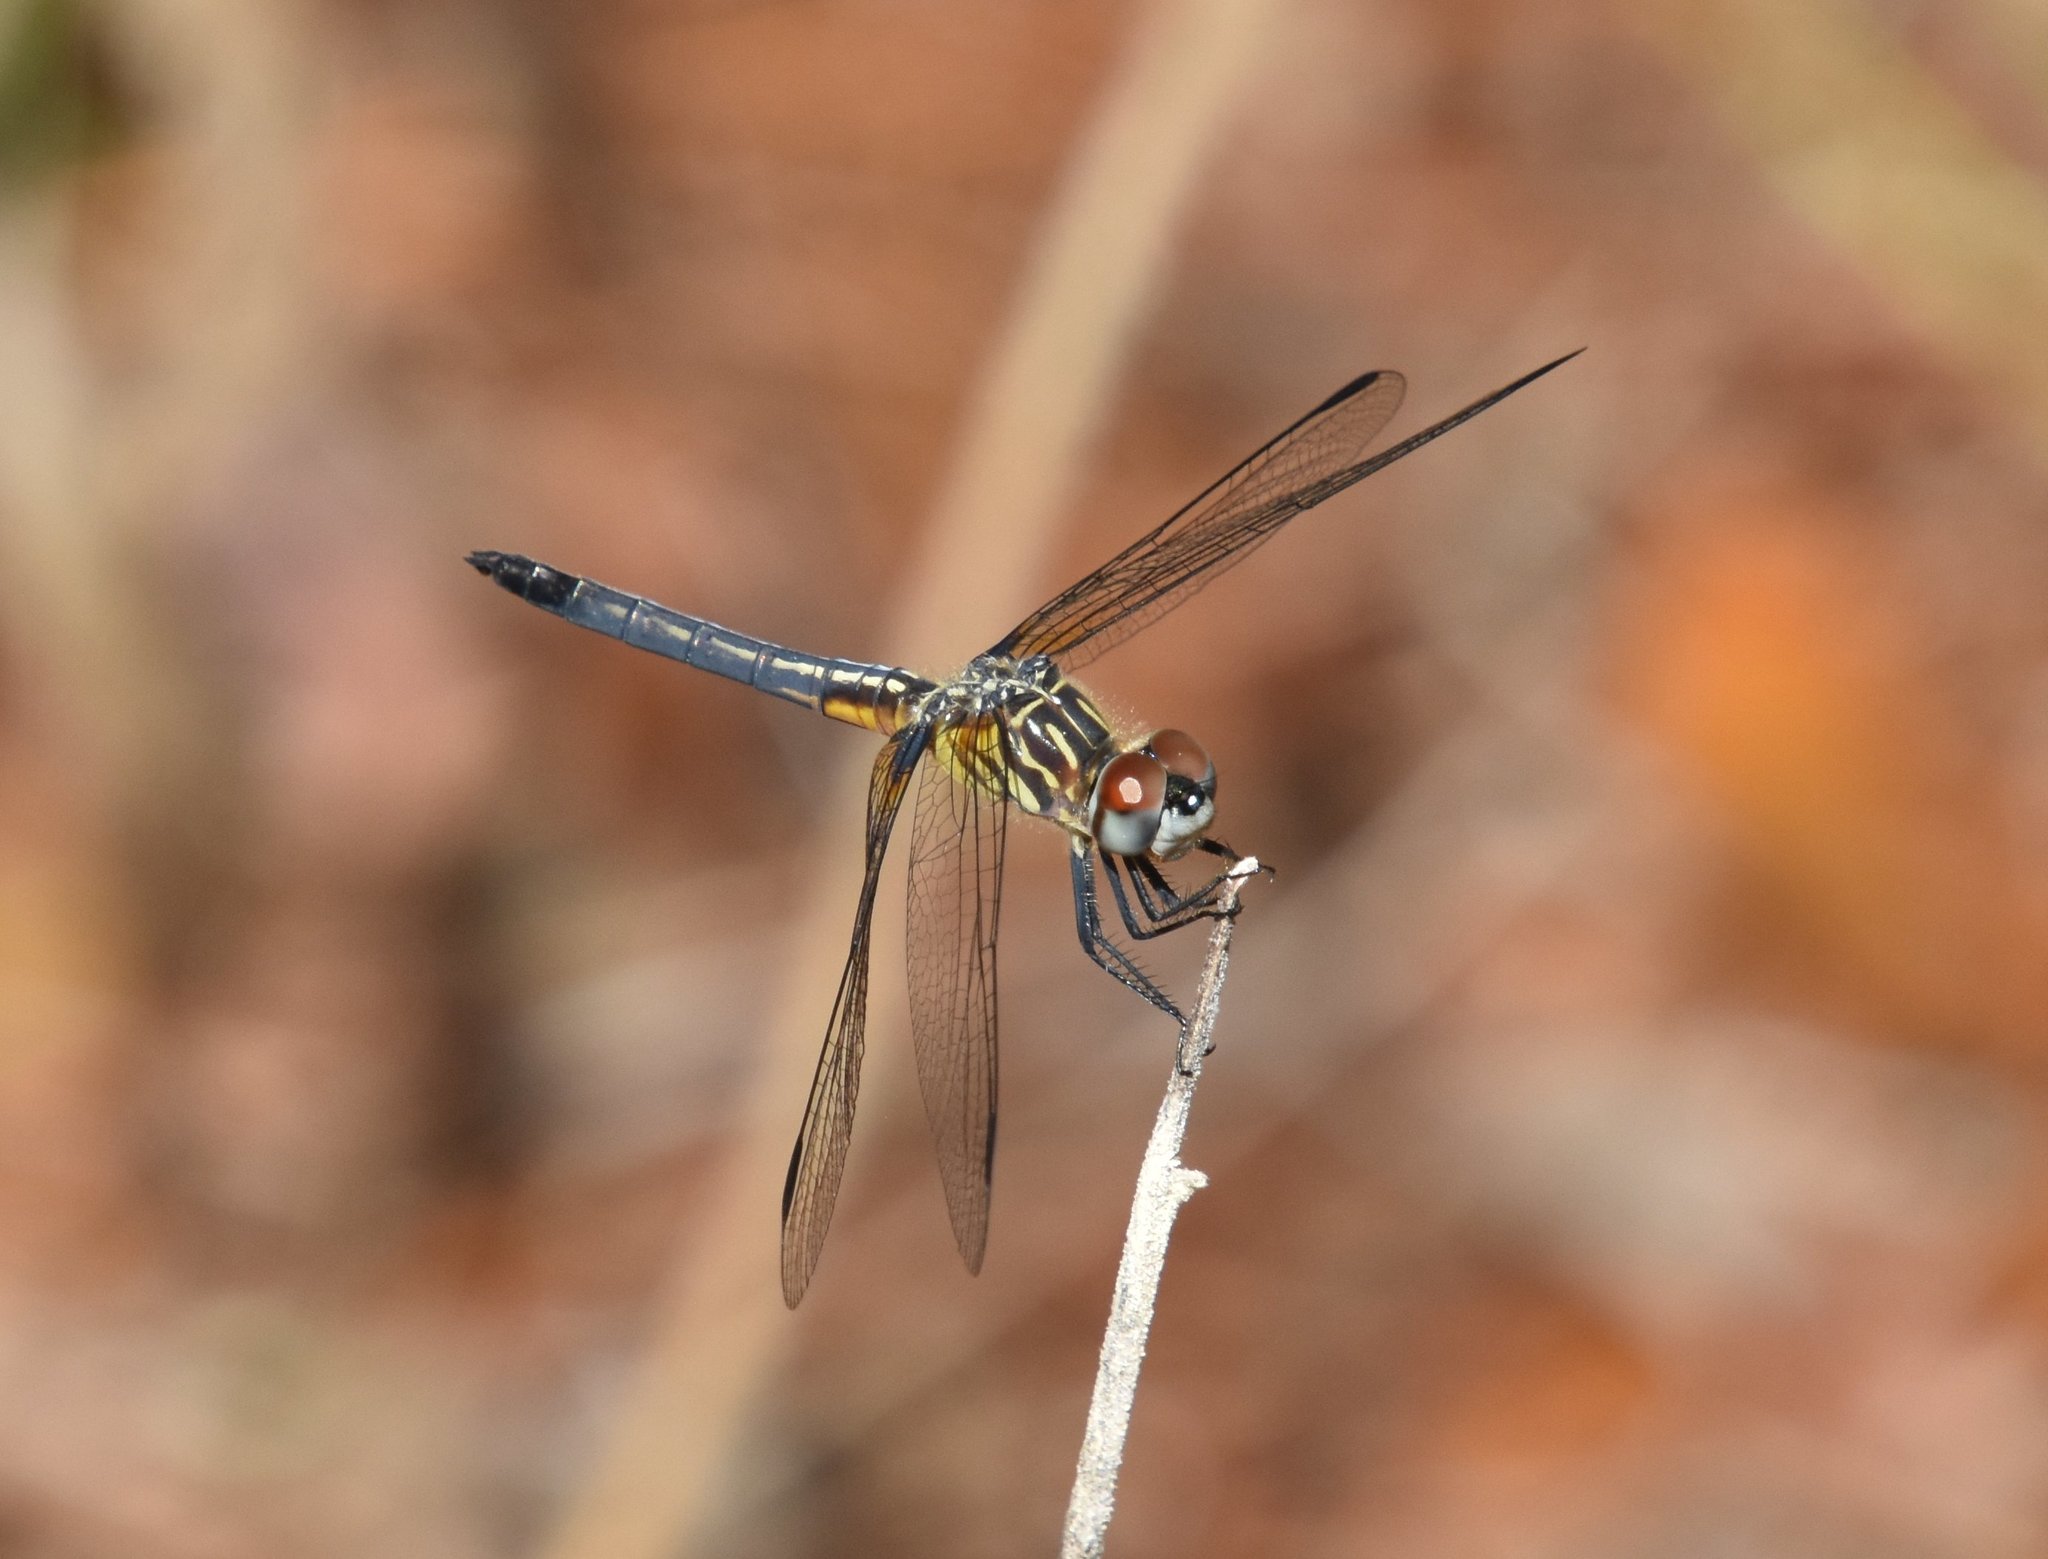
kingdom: Animalia
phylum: Arthropoda
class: Insecta
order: Odonata
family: Libellulidae
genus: Pachydiplax
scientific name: Pachydiplax longipennis
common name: Blue dasher
